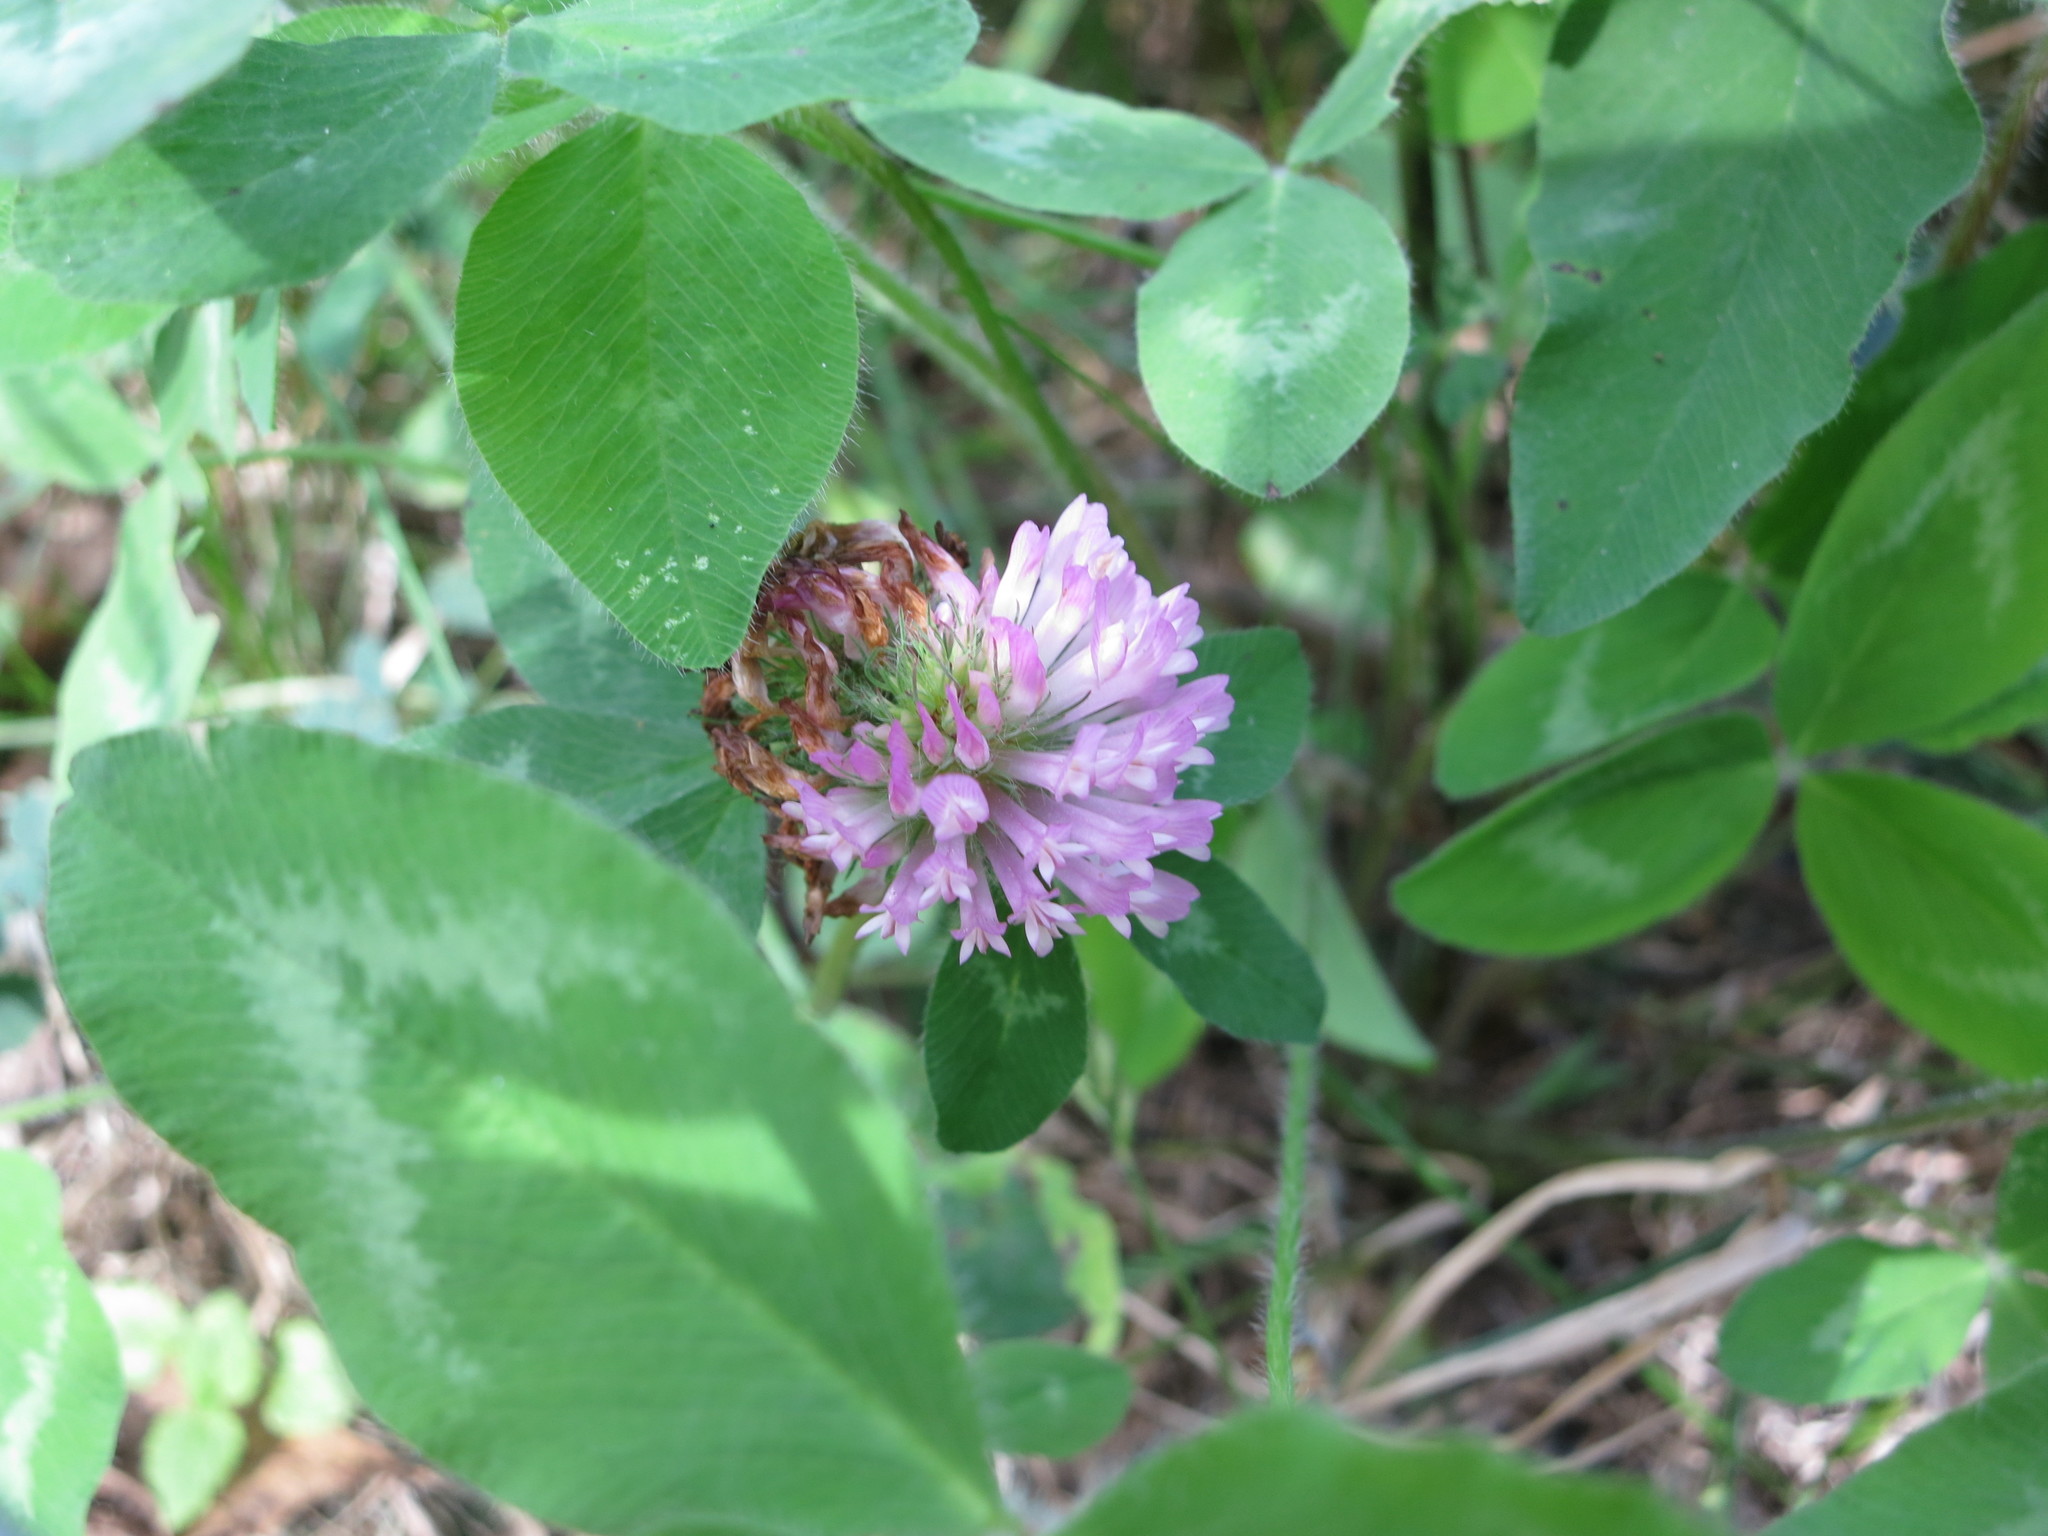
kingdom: Plantae
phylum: Tracheophyta
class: Magnoliopsida
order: Fabales
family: Fabaceae
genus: Trifolium
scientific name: Trifolium pratense
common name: Red clover
